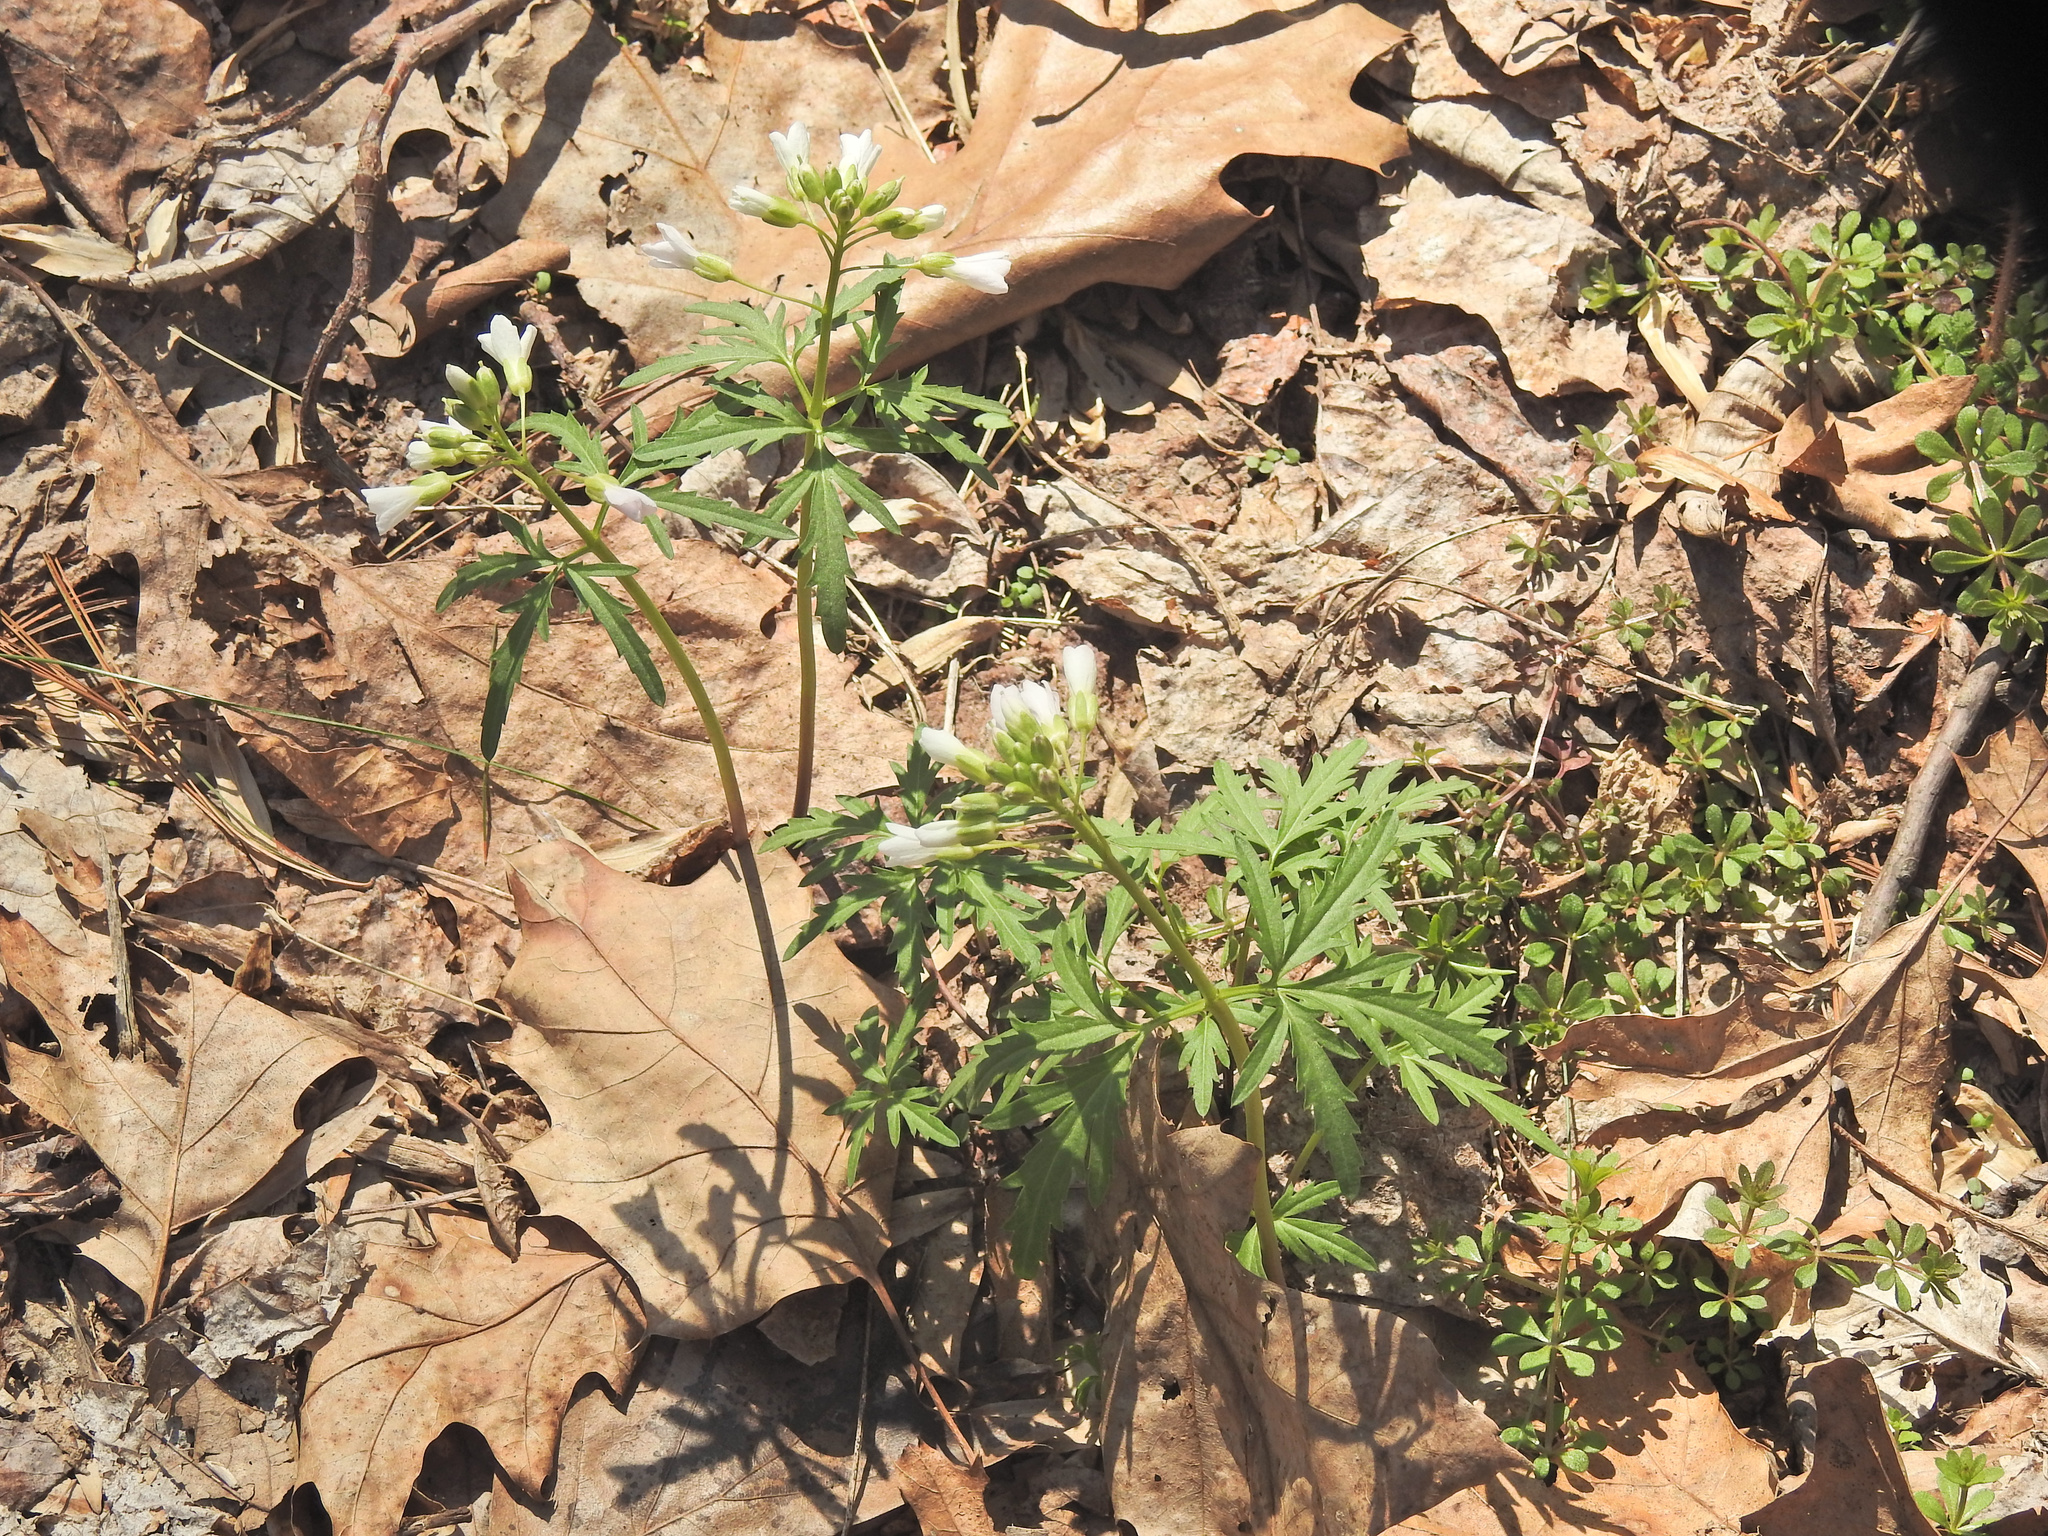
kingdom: Plantae
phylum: Tracheophyta
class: Magnoliopsida
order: Brassicales
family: Brassicaceae
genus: Cardamine
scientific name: Cardamine concatenata
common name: Cut-leaf toothcup
